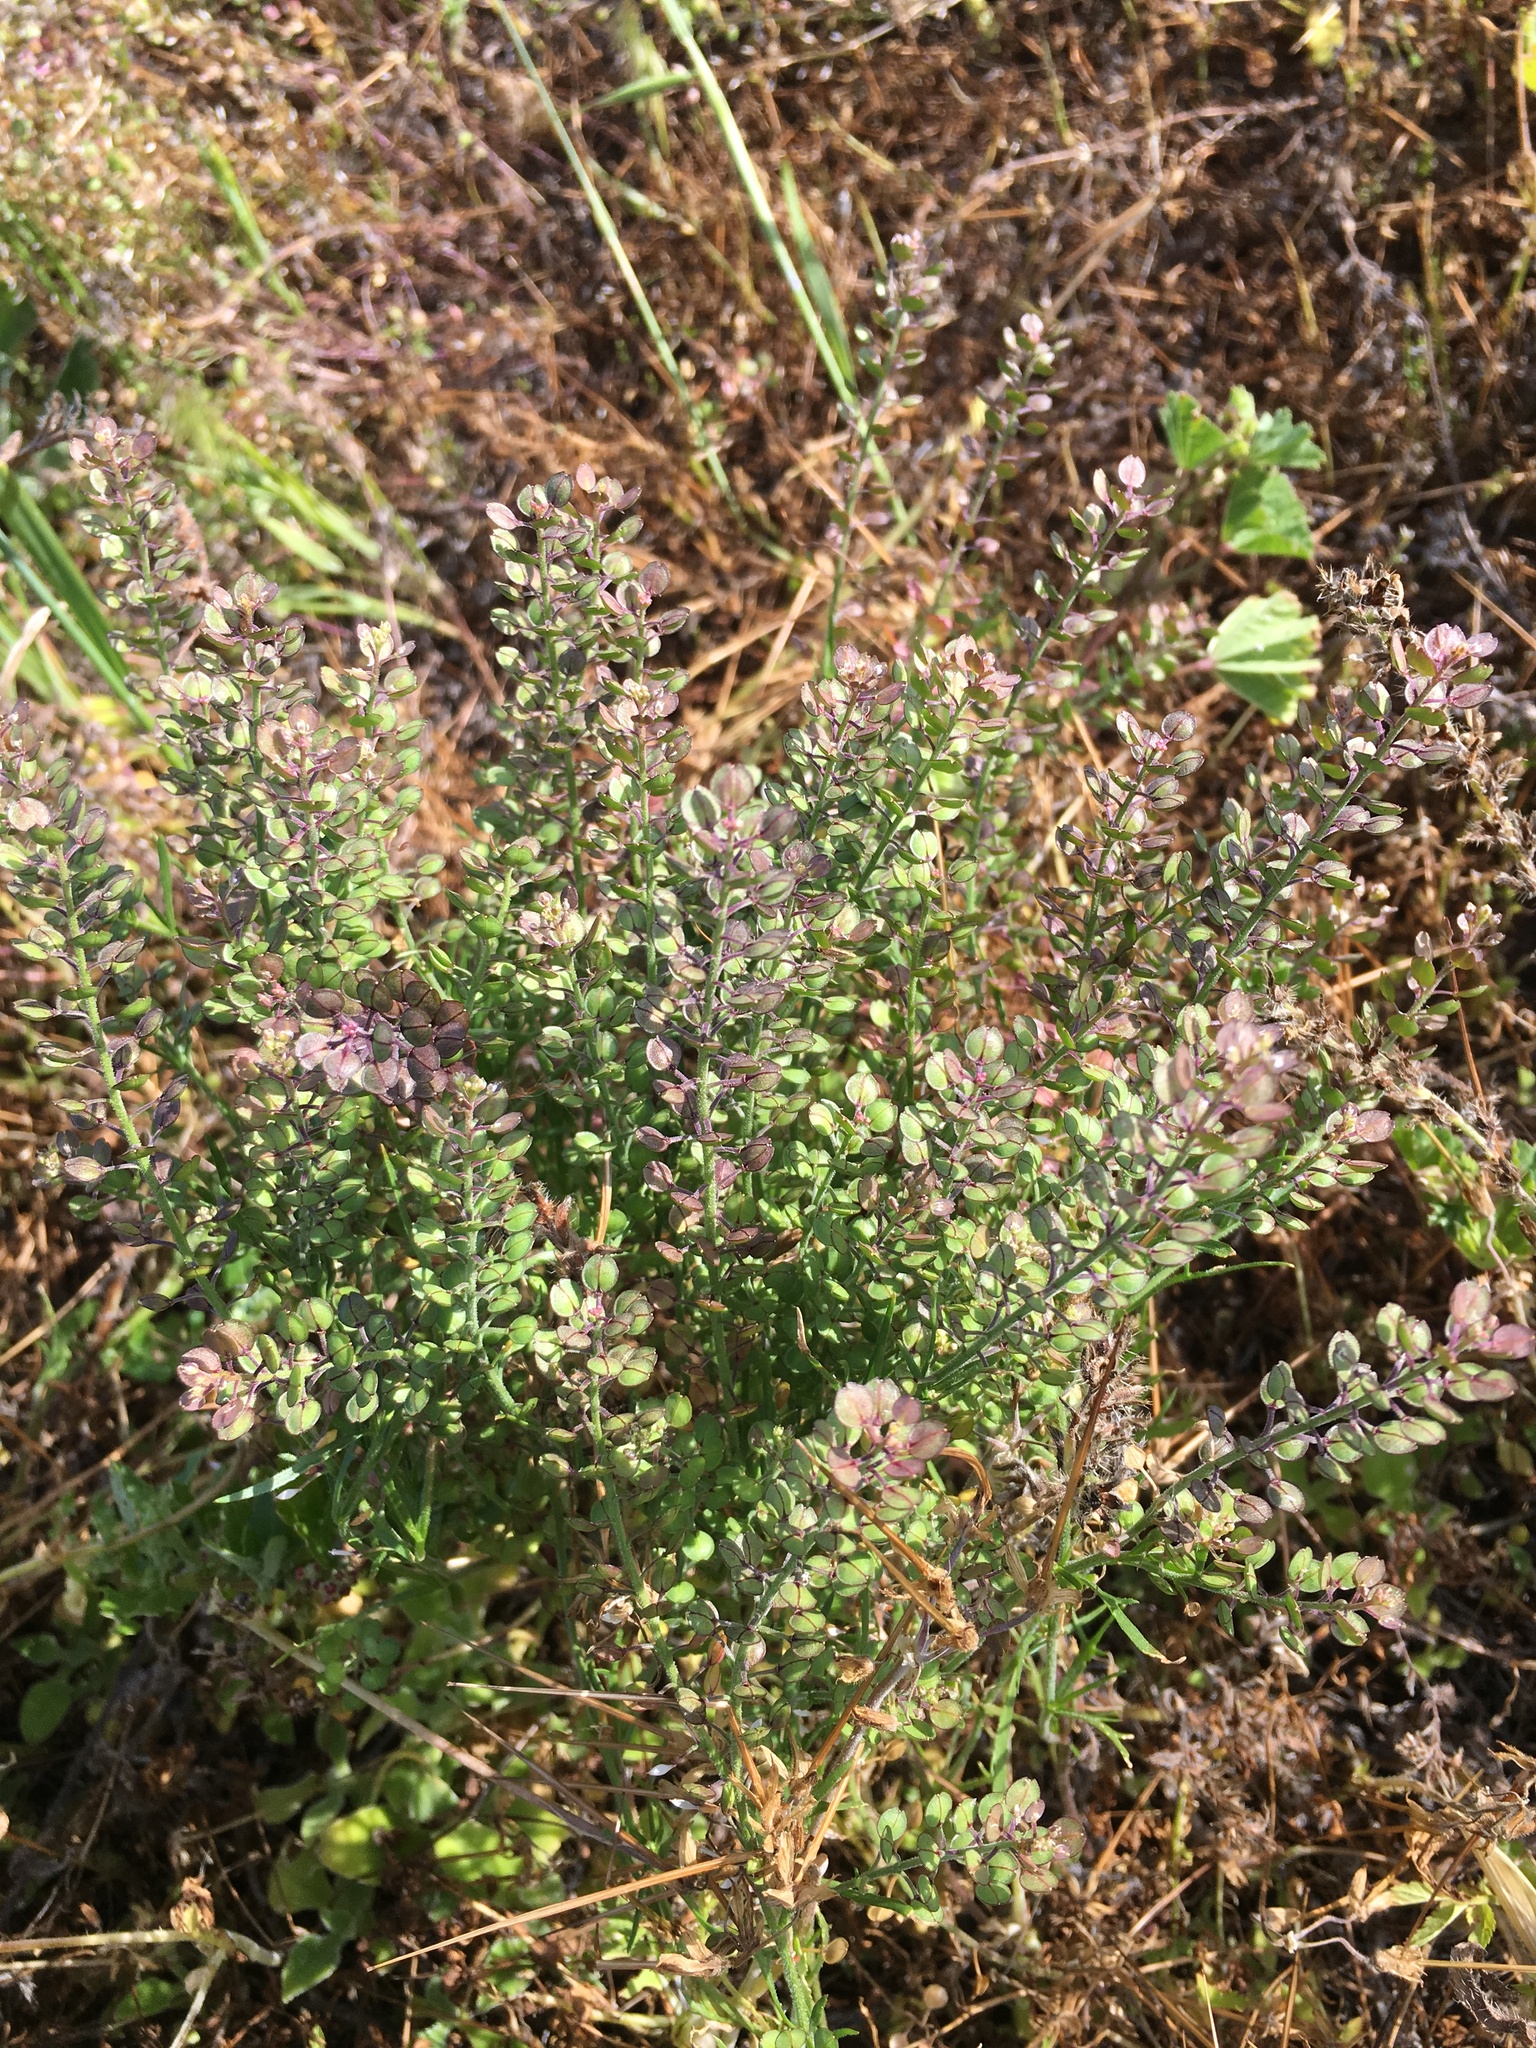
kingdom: Plantae
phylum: Tracheophyta
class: Magnoliopsida
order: Brassicales
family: Brassicaceae
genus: Lepidium
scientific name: Lepidium nitidum
